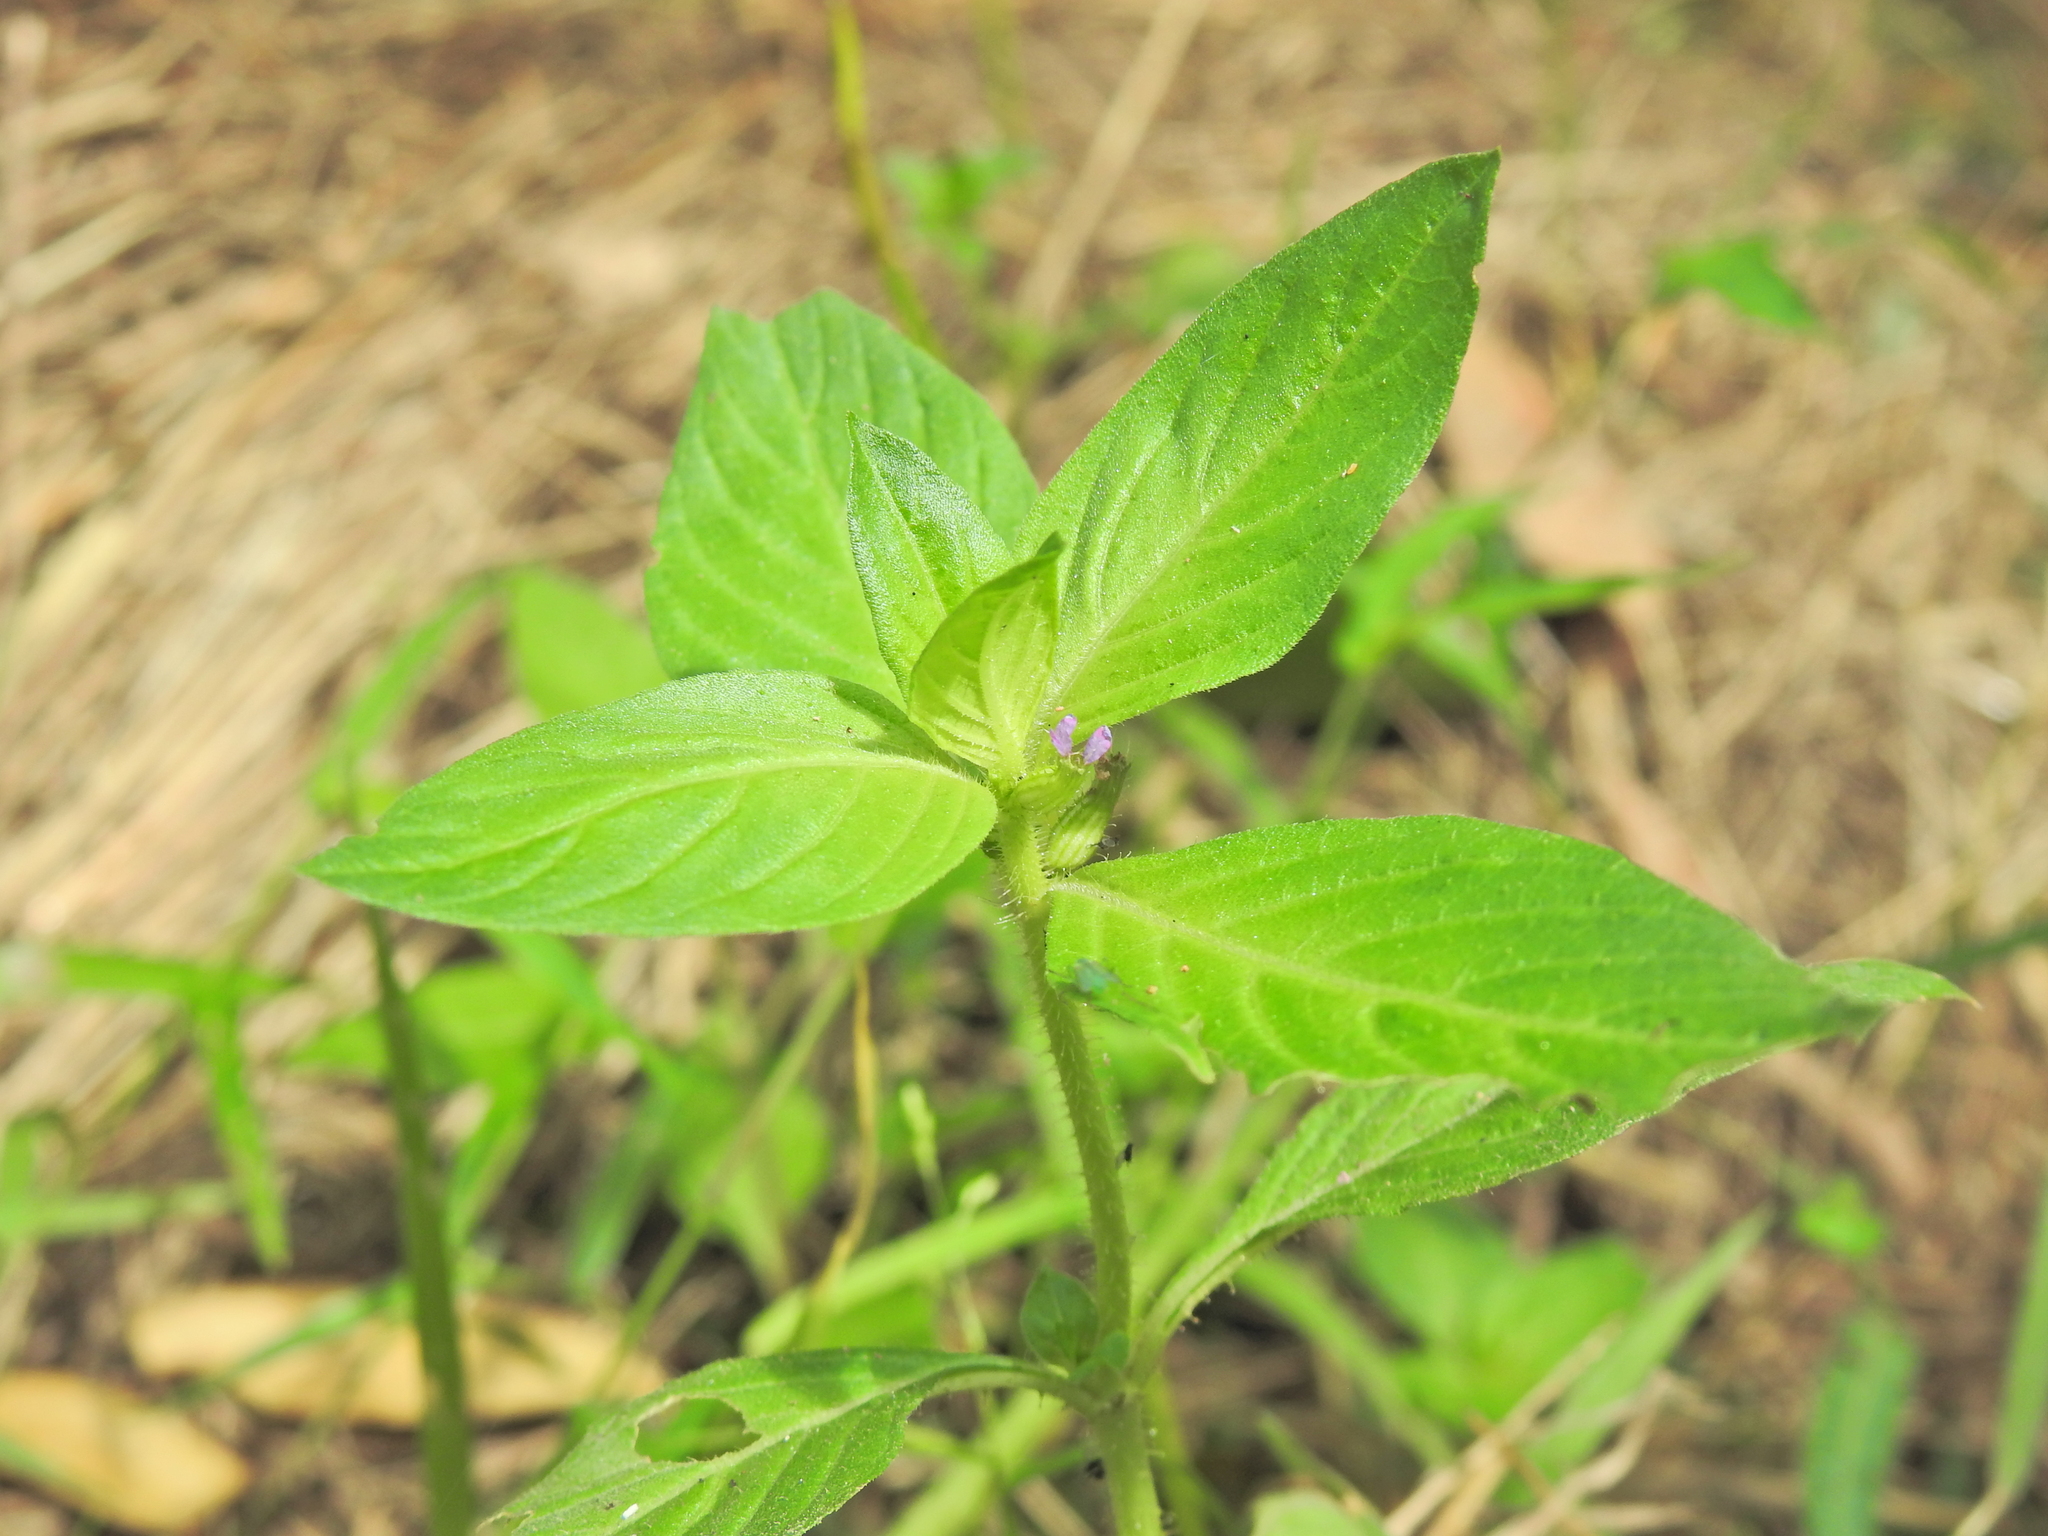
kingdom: Plantae
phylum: Tracheophyta
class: Magnoliopsida
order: Myrtales
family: Lythraceae
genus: Cuphea
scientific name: Cuphea carthagenensis
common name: Colombian waxweed
